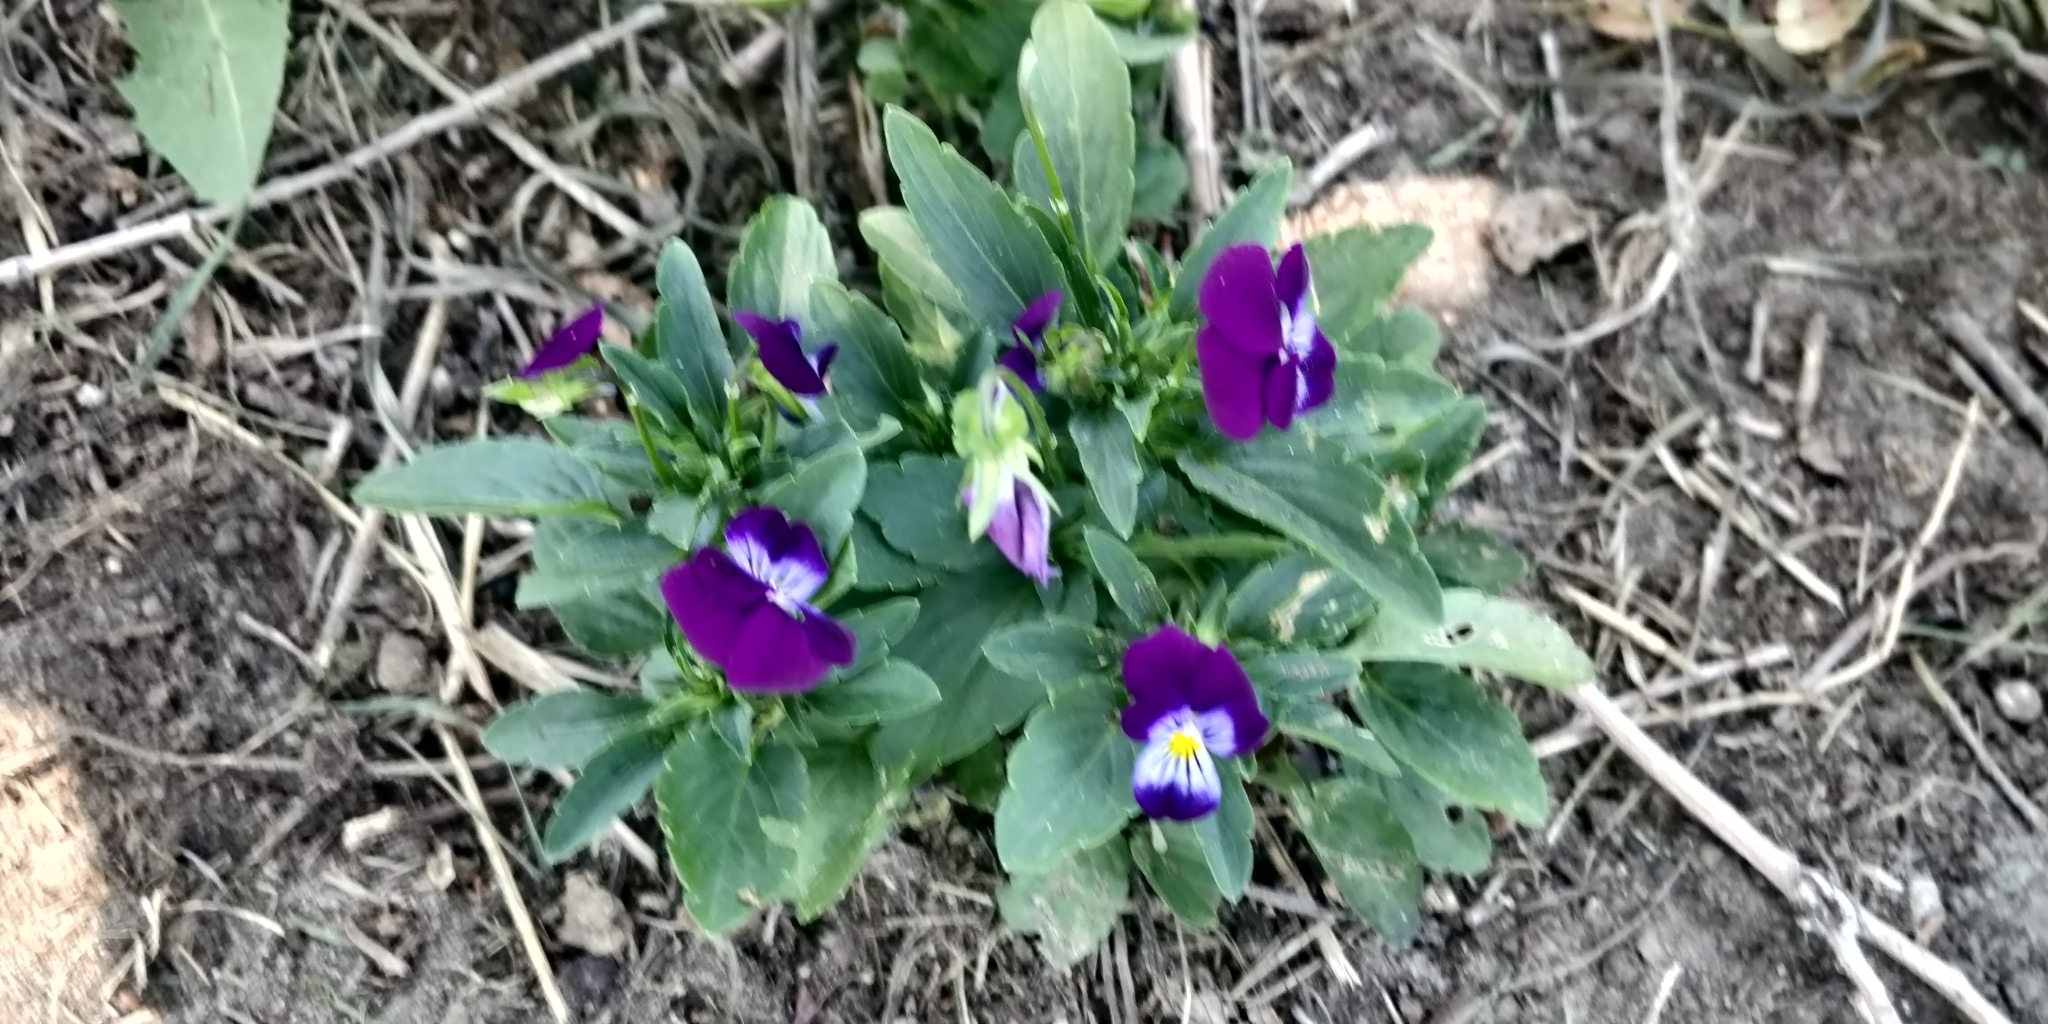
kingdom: Plantae
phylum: Tracheophyta
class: Magnoliopsida
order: Malpighiales
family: Violaceae
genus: Viola
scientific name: Viola williamsii
